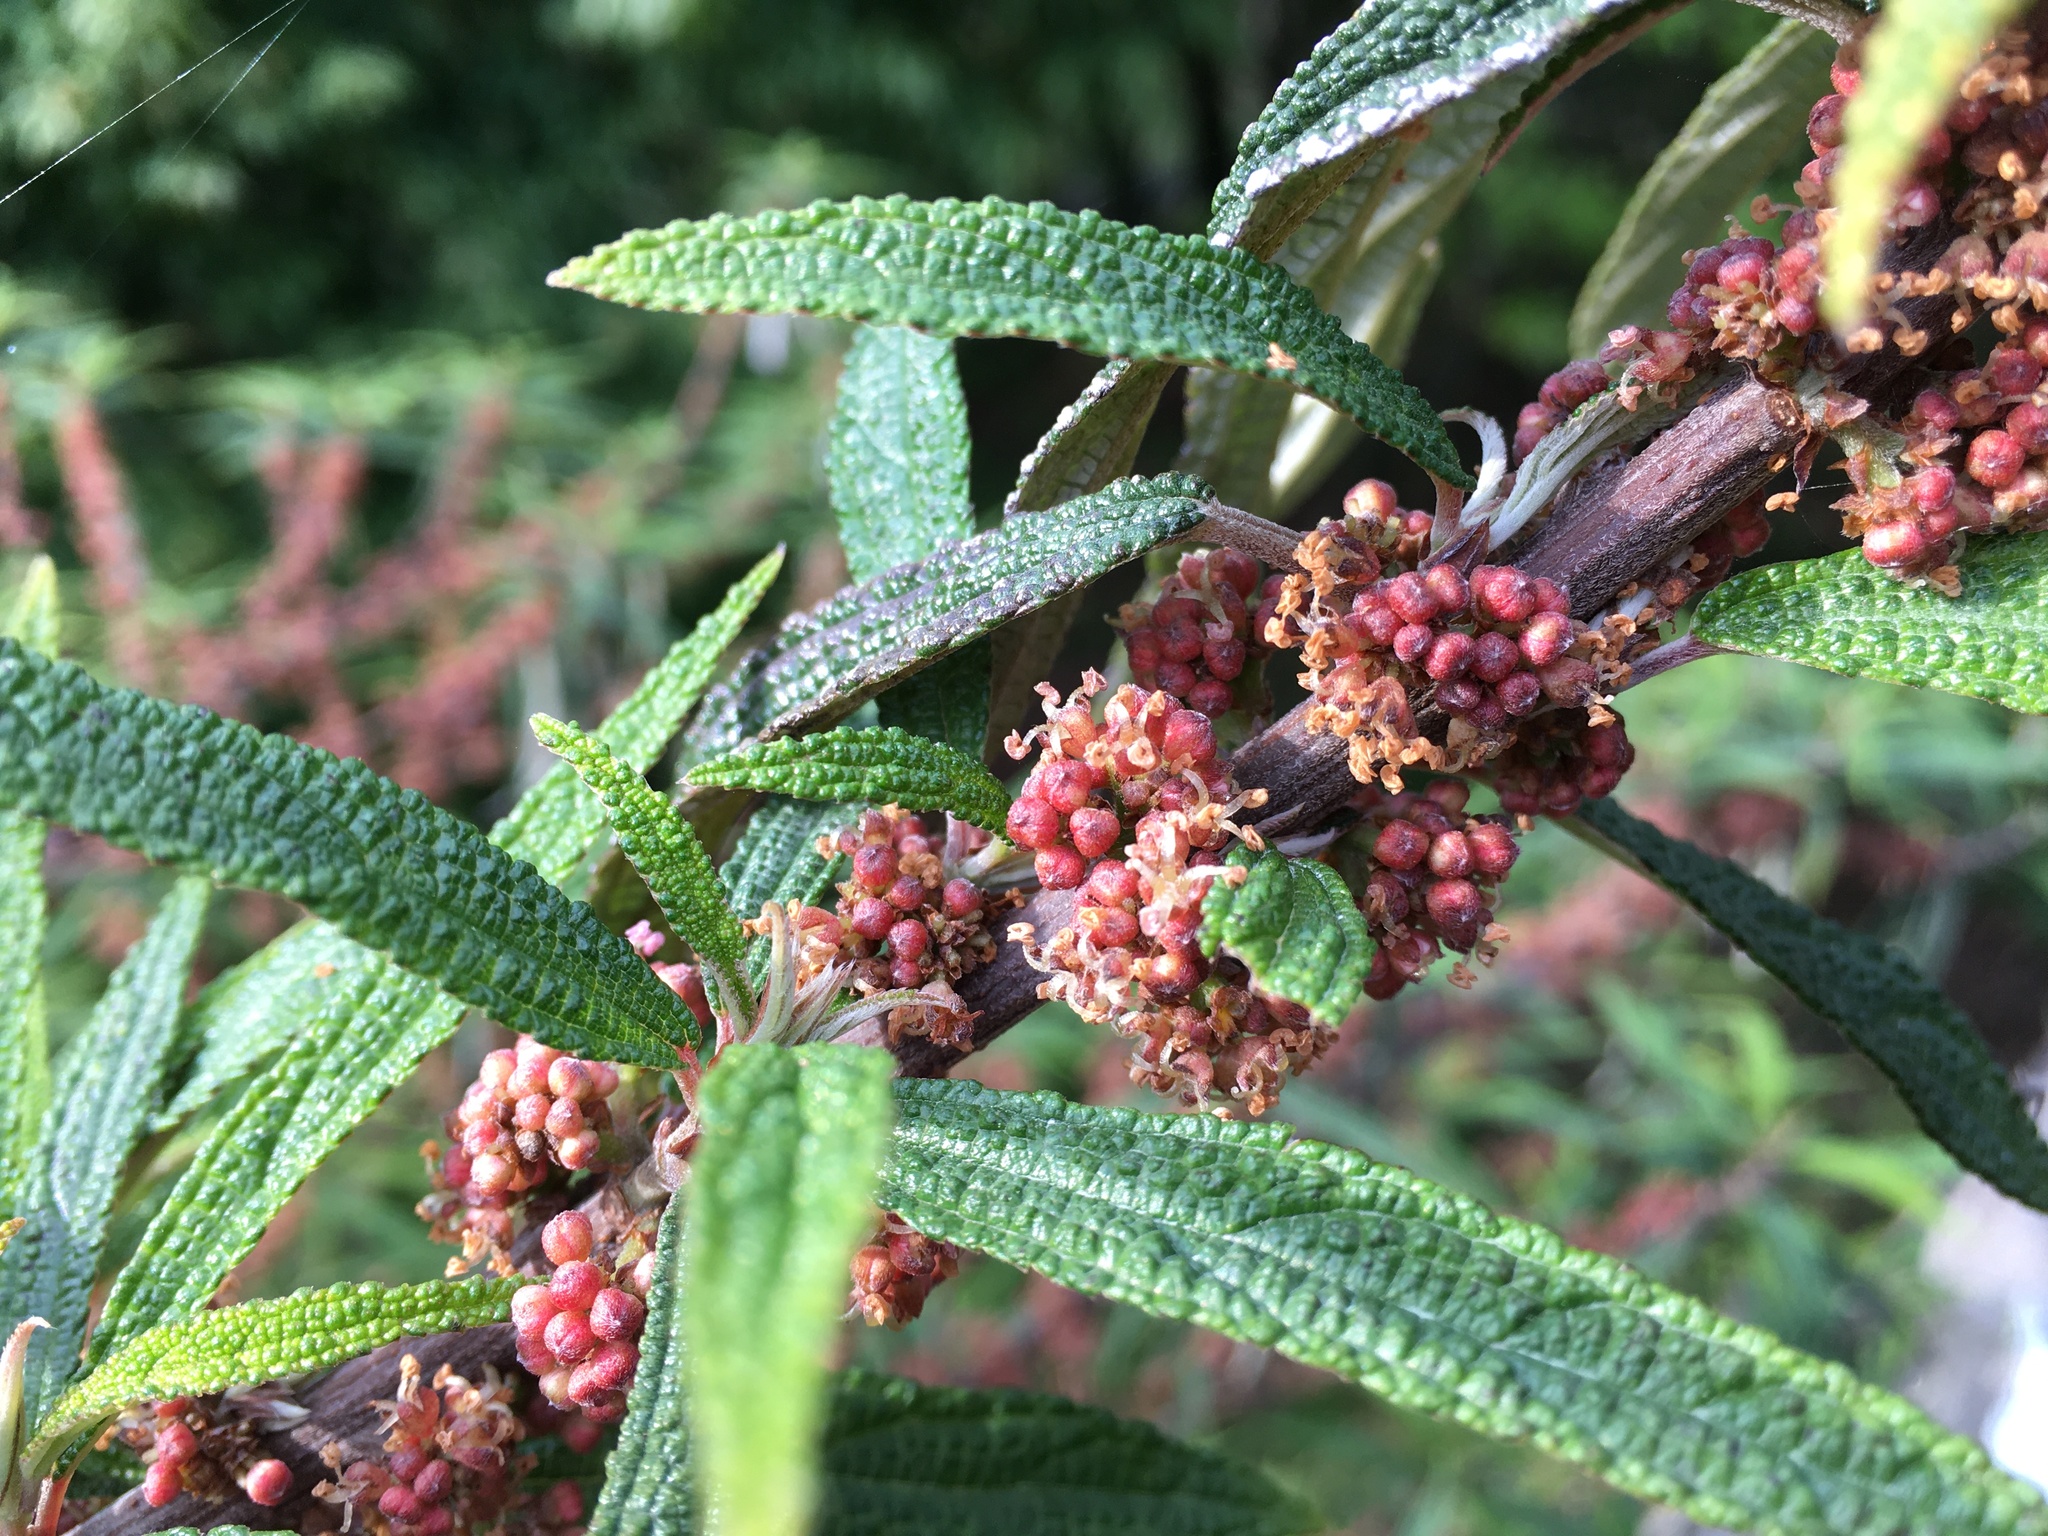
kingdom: Plantae
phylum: Tracheophyta
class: Magnoliopsida
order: Rosales
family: Urticaceae
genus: Debregeasia
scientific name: Debregeasia orientalis
